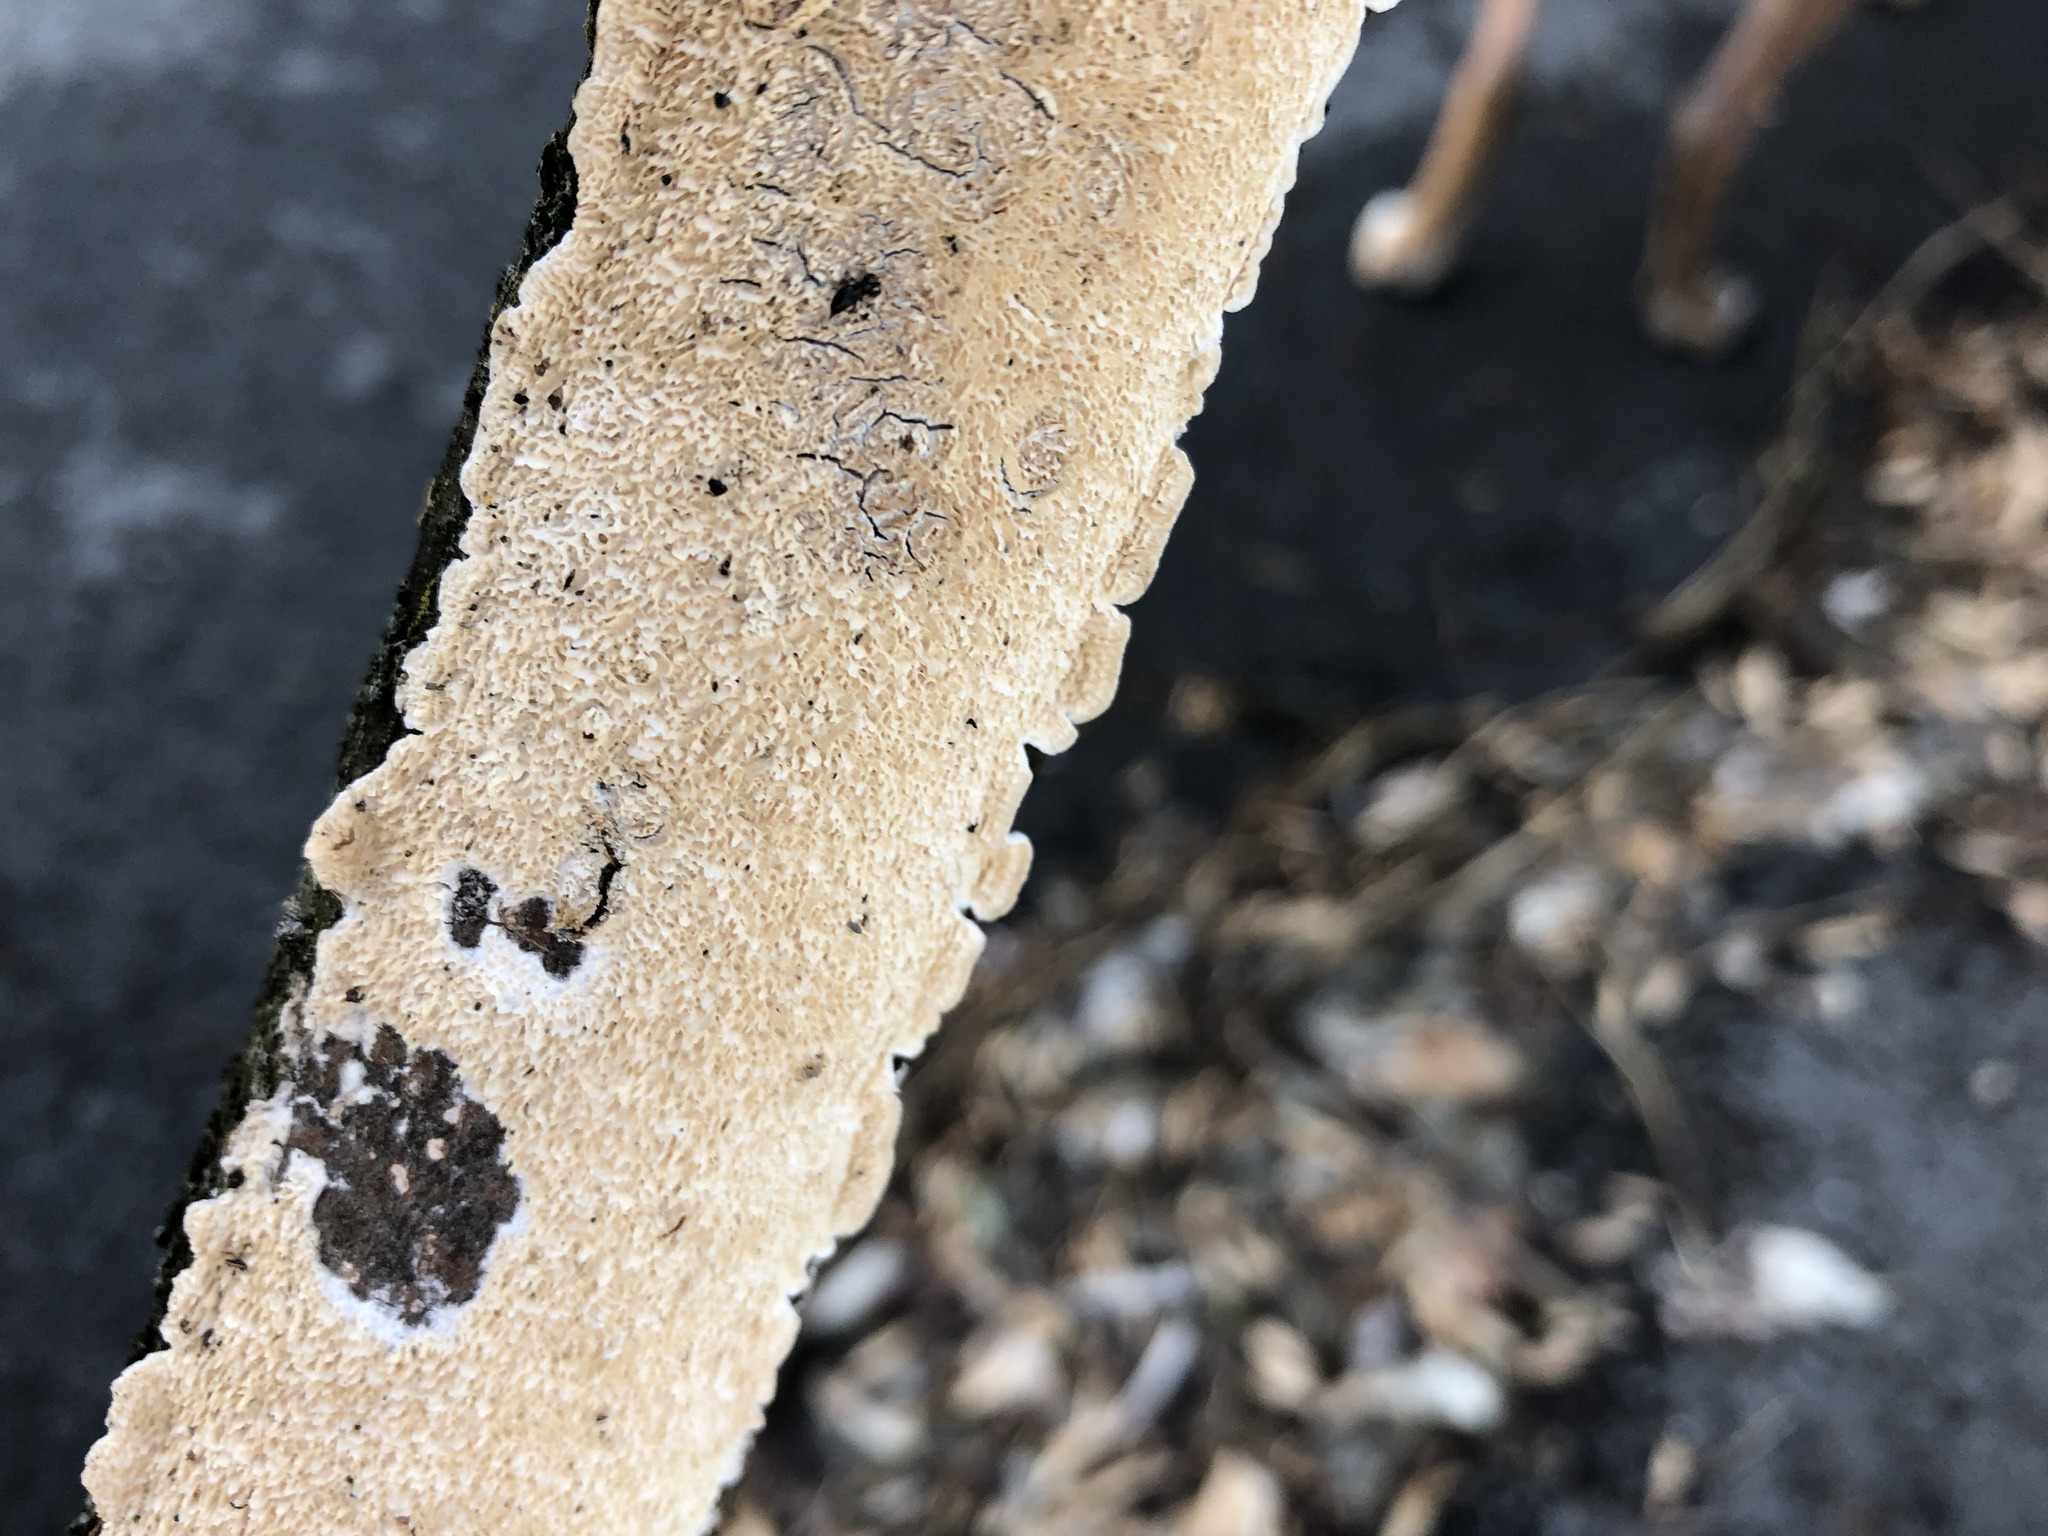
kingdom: Fungi
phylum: Basidiomycota
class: Agaricomycetes
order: Polyporales
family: Irpicaceae
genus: Irpex
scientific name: Irpex lacteus
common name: Milk-white toothed polypore
